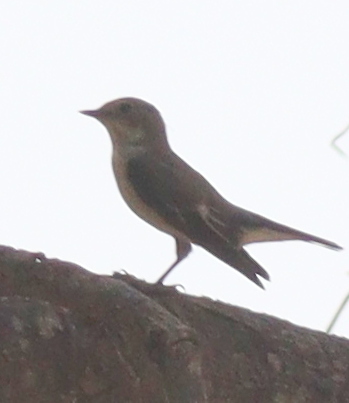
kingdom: Animalia
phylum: Chordata
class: Aves
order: Passeriformes
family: Muscicapidae
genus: Ficedula
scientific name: Ficedula hypoleuca
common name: European pied flycatcher
